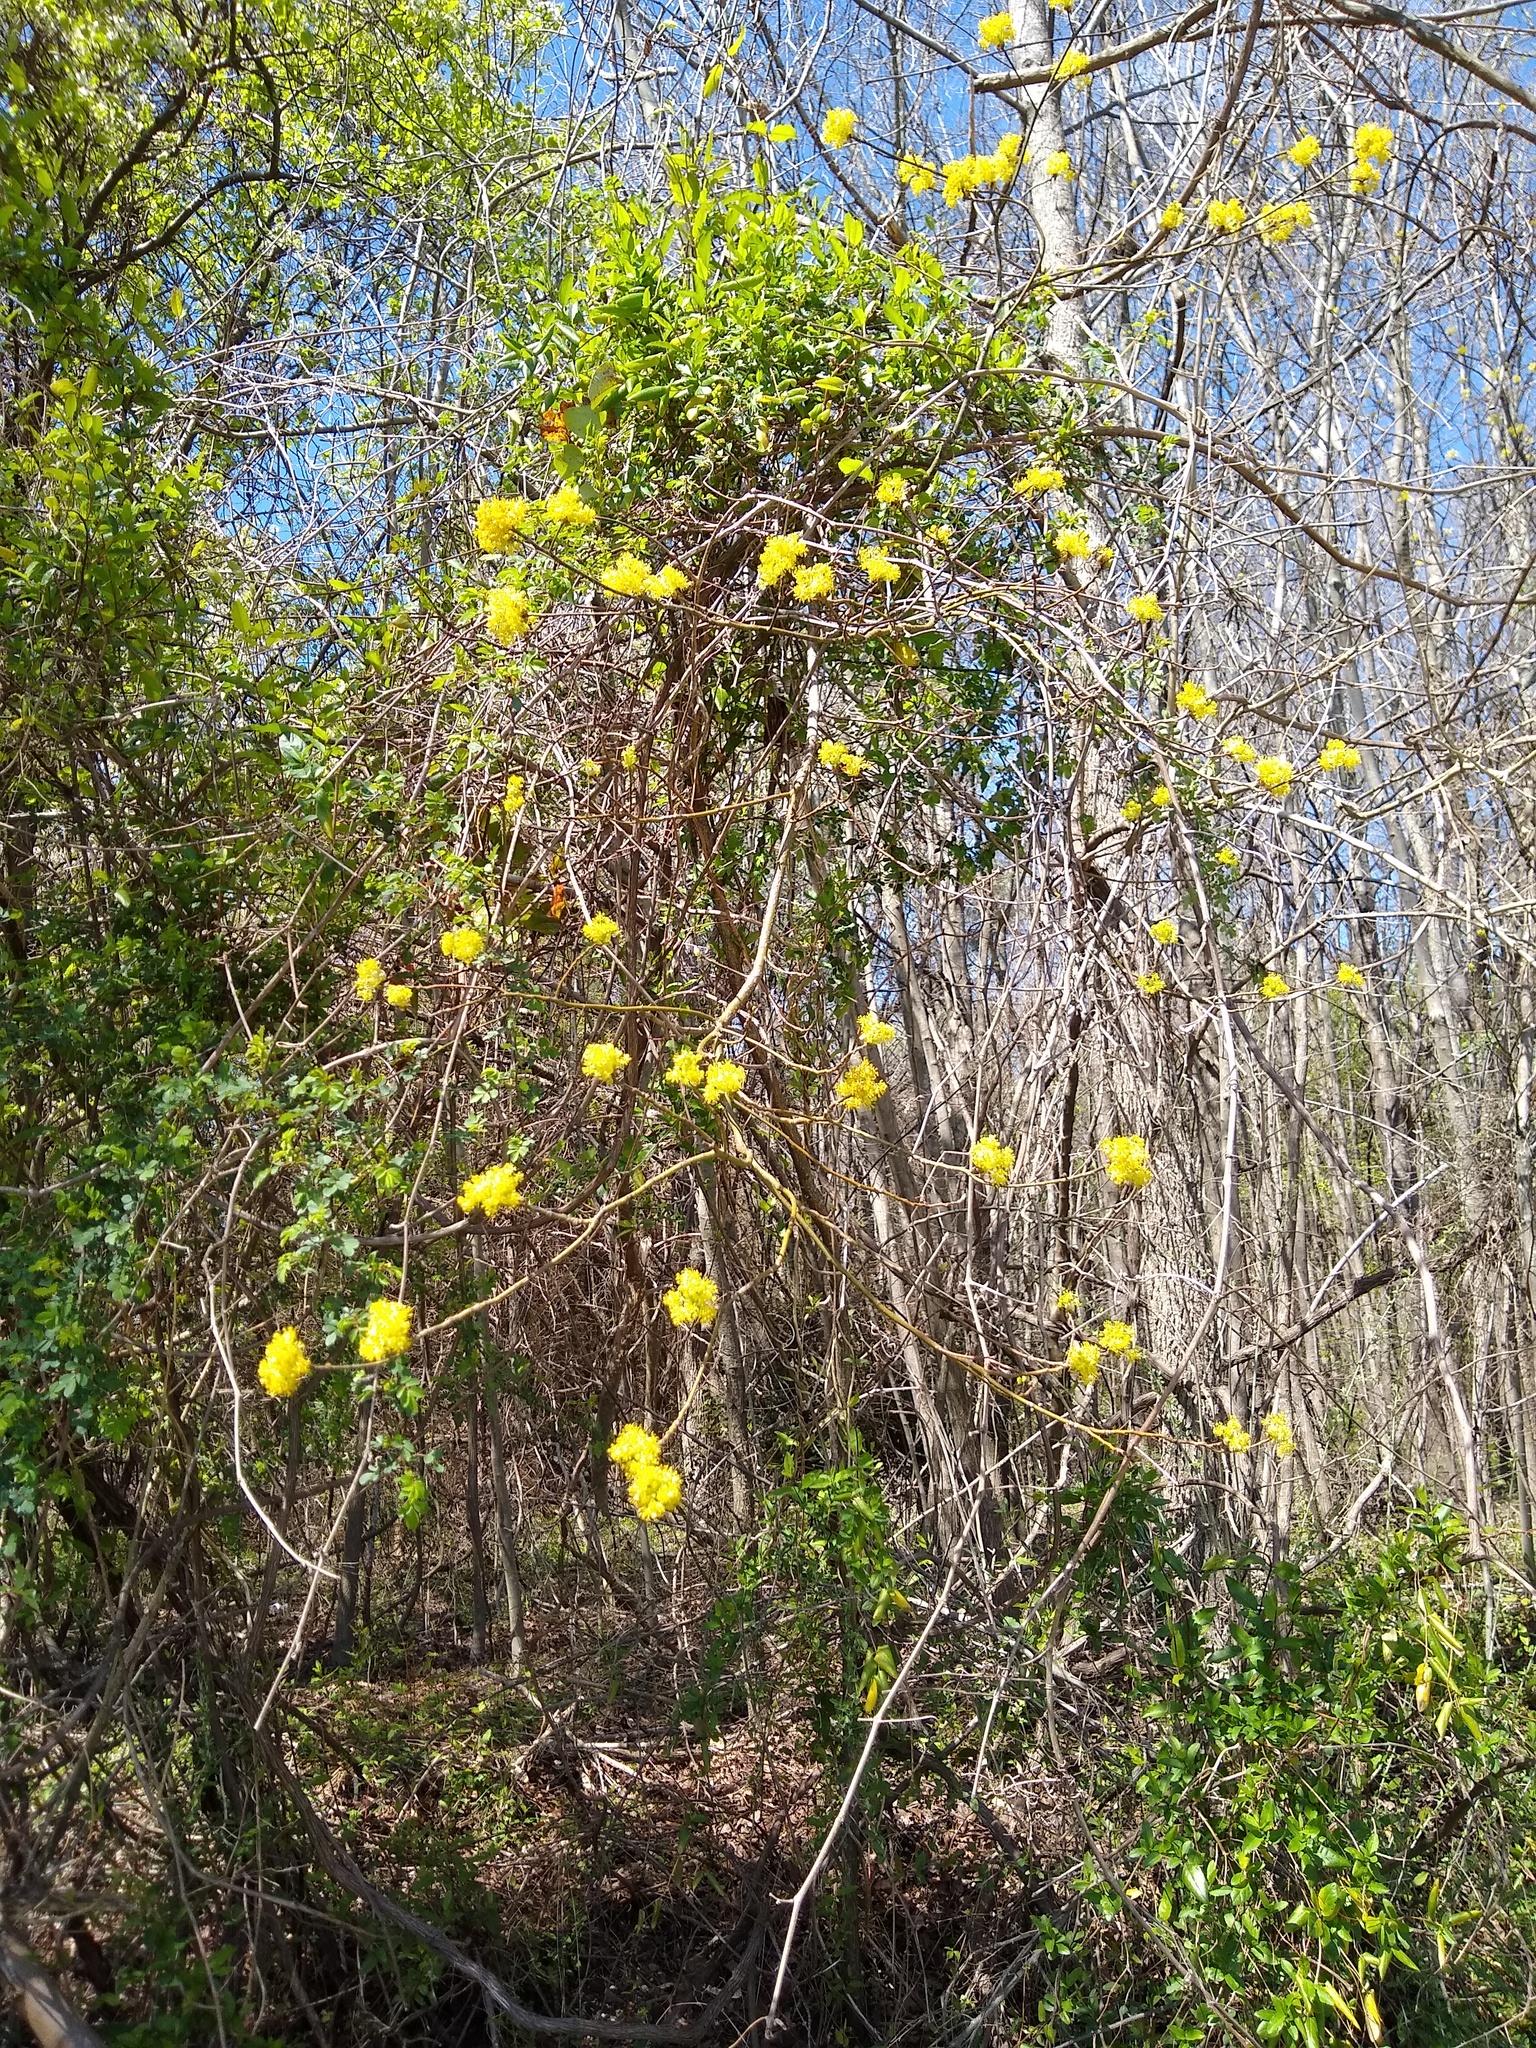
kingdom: Plantae
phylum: Tracheophyta
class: Magnoliopsida
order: Laurales
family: Lauraceae
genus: Sassafras
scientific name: Sassafras albidum
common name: Sassafras
